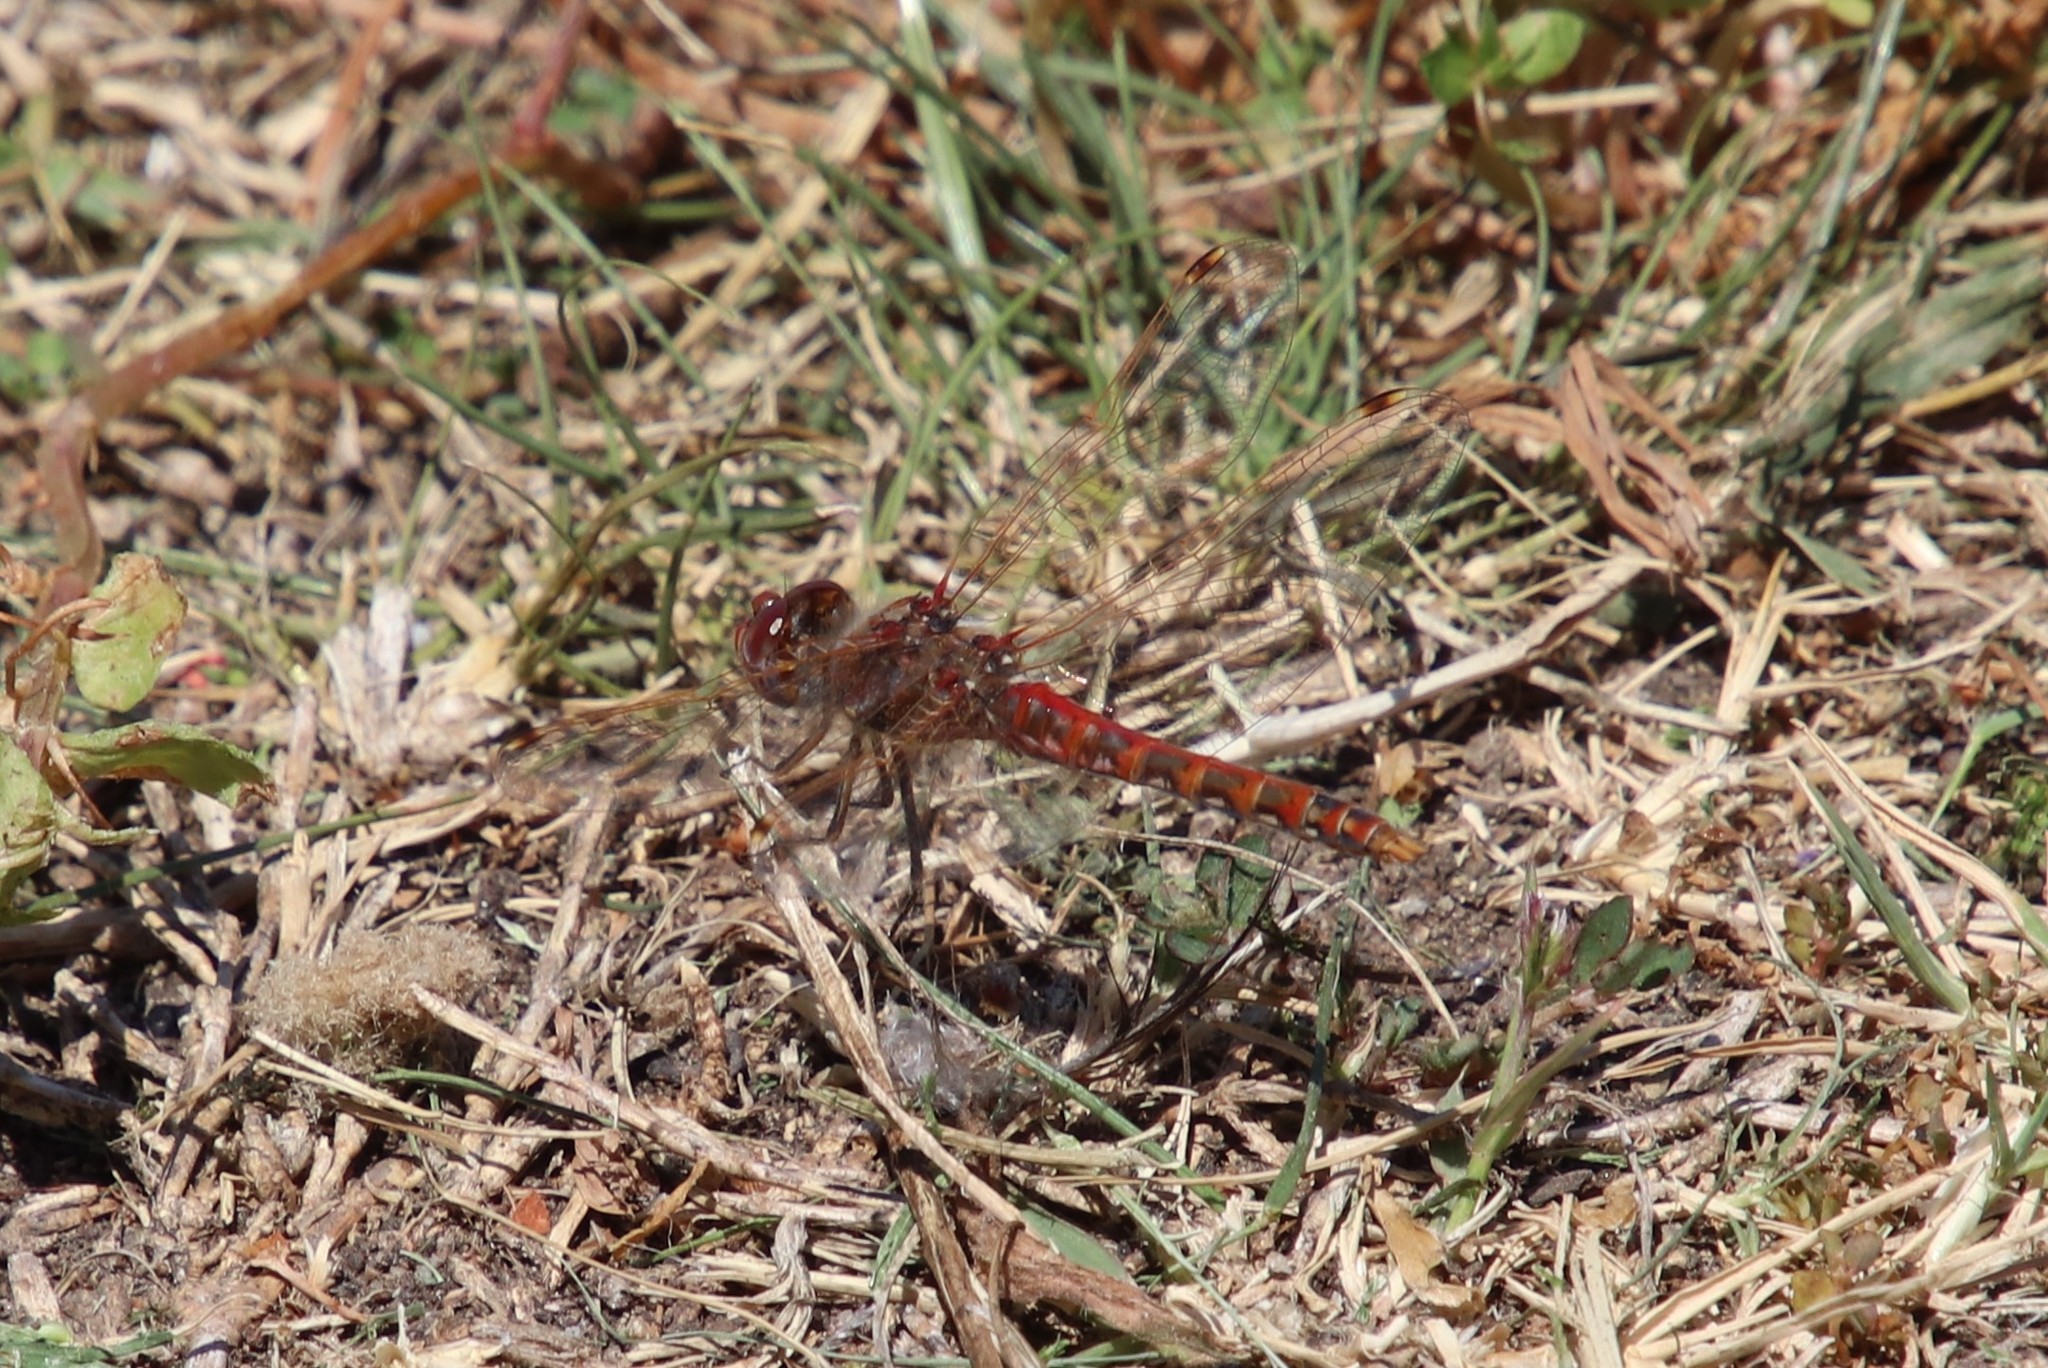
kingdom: Animalia
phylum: Arthropoda
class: Insecta
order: Odonata
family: Libellulidae
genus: Sympetrum
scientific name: Sympetrum corruptum
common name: Variegated meadowhawk
